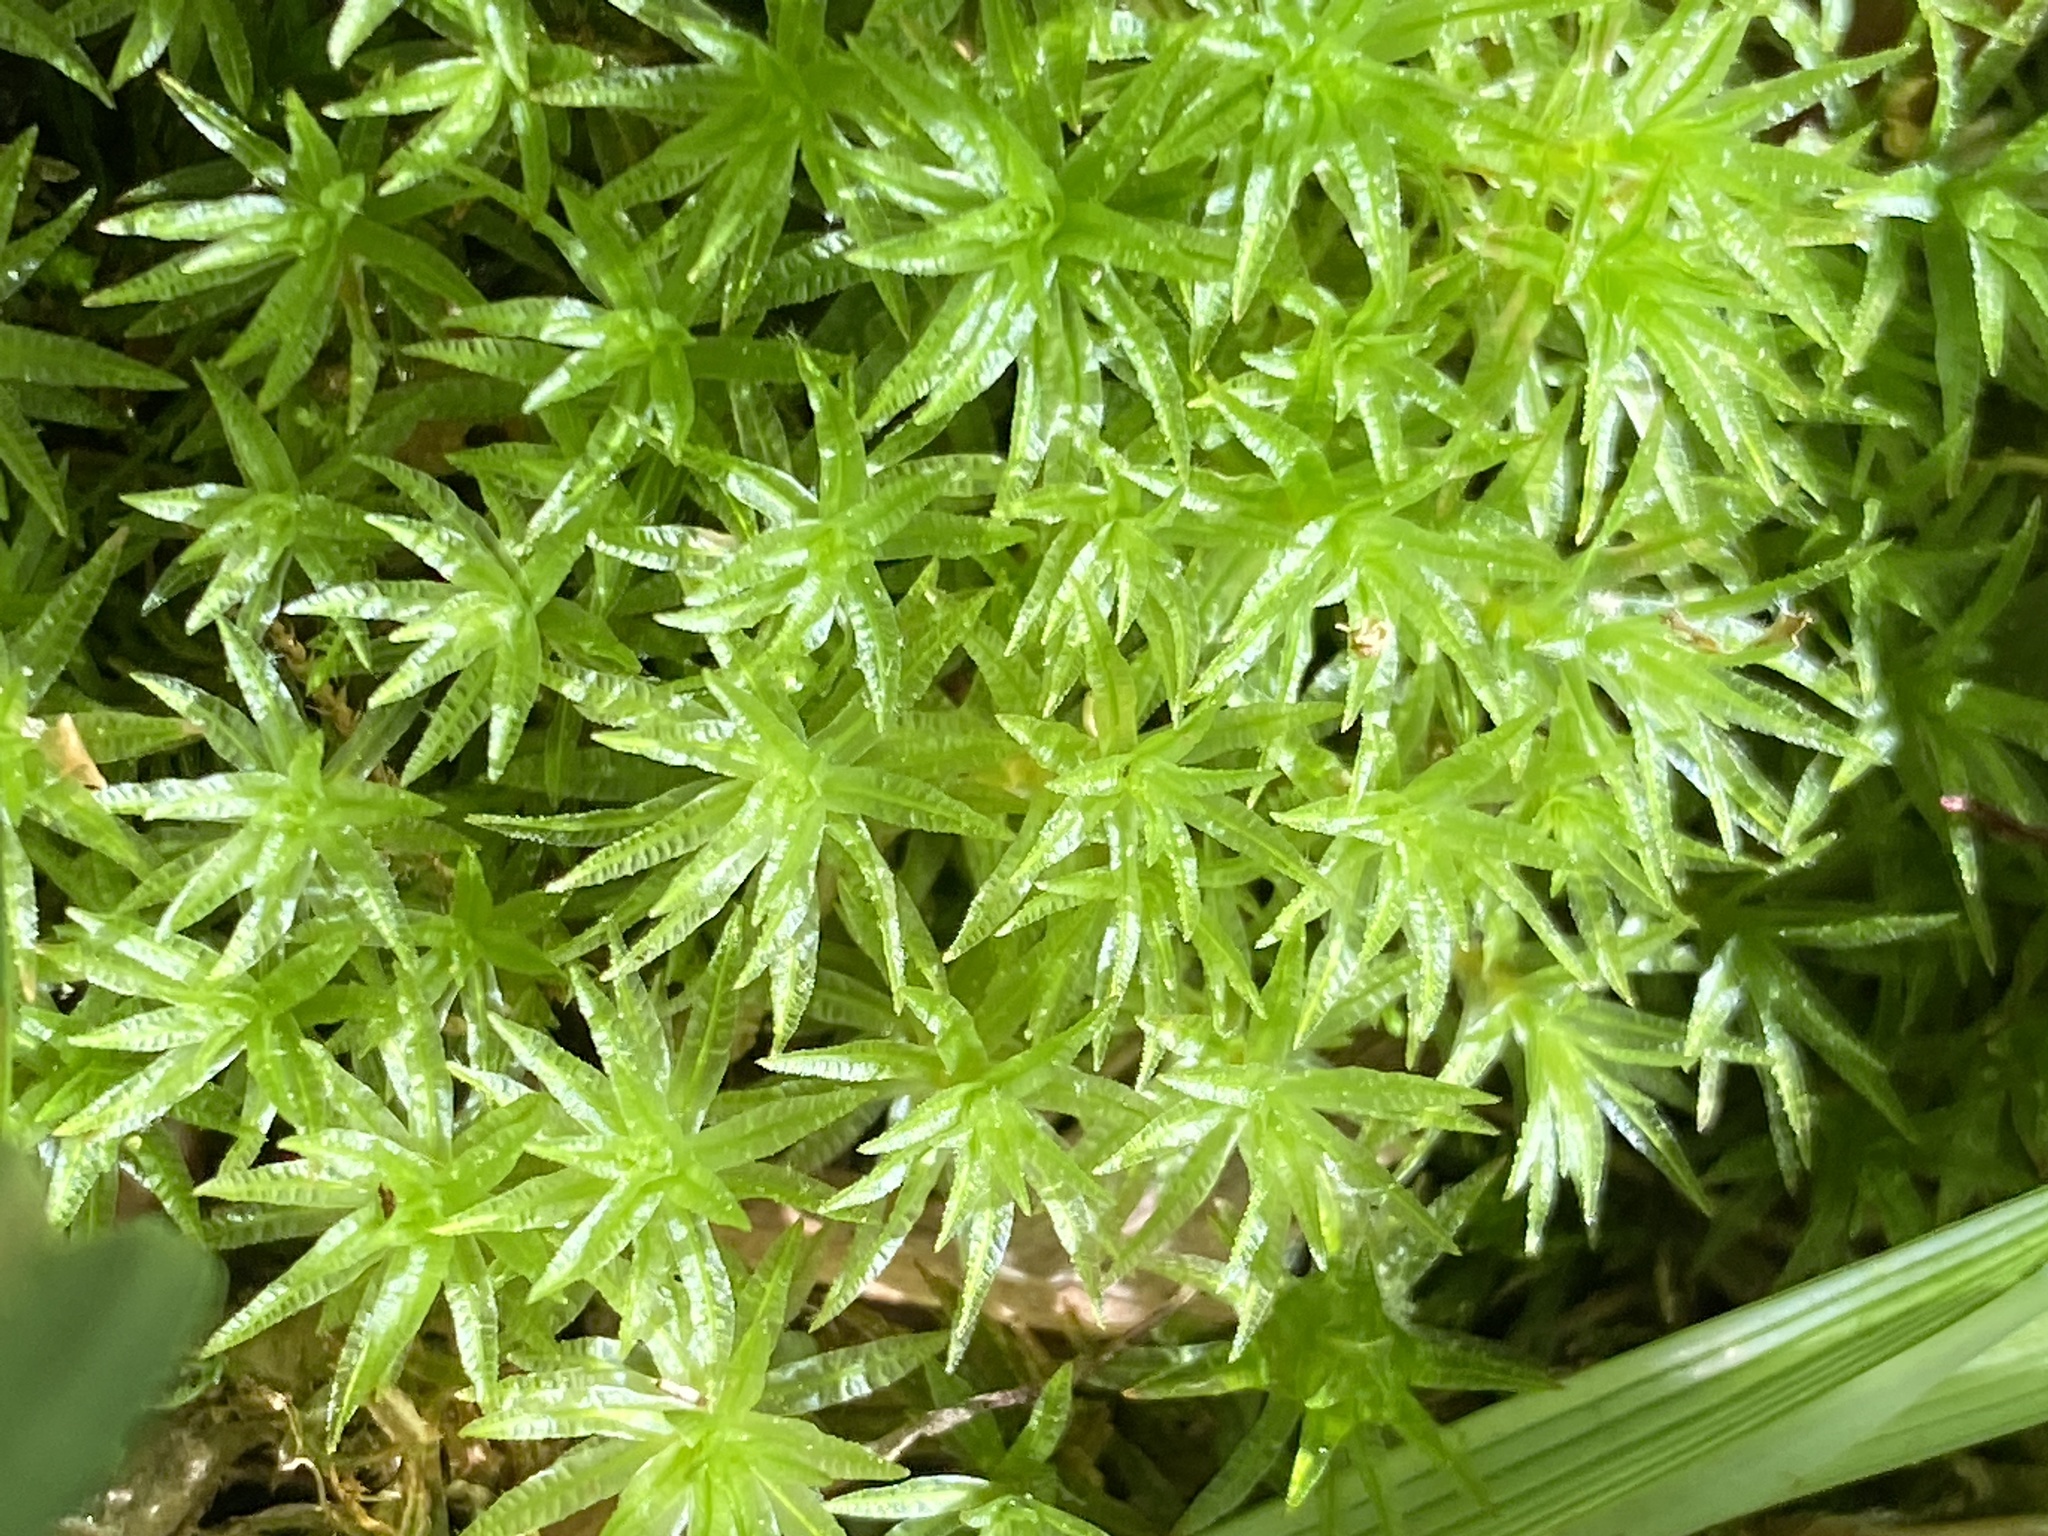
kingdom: Plantae
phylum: Bryophyta
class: Polytrichopsida
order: Polytrichales
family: Polytrichaceae
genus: Atrichum
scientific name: Atrichum undulatum
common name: Common smoothcap
